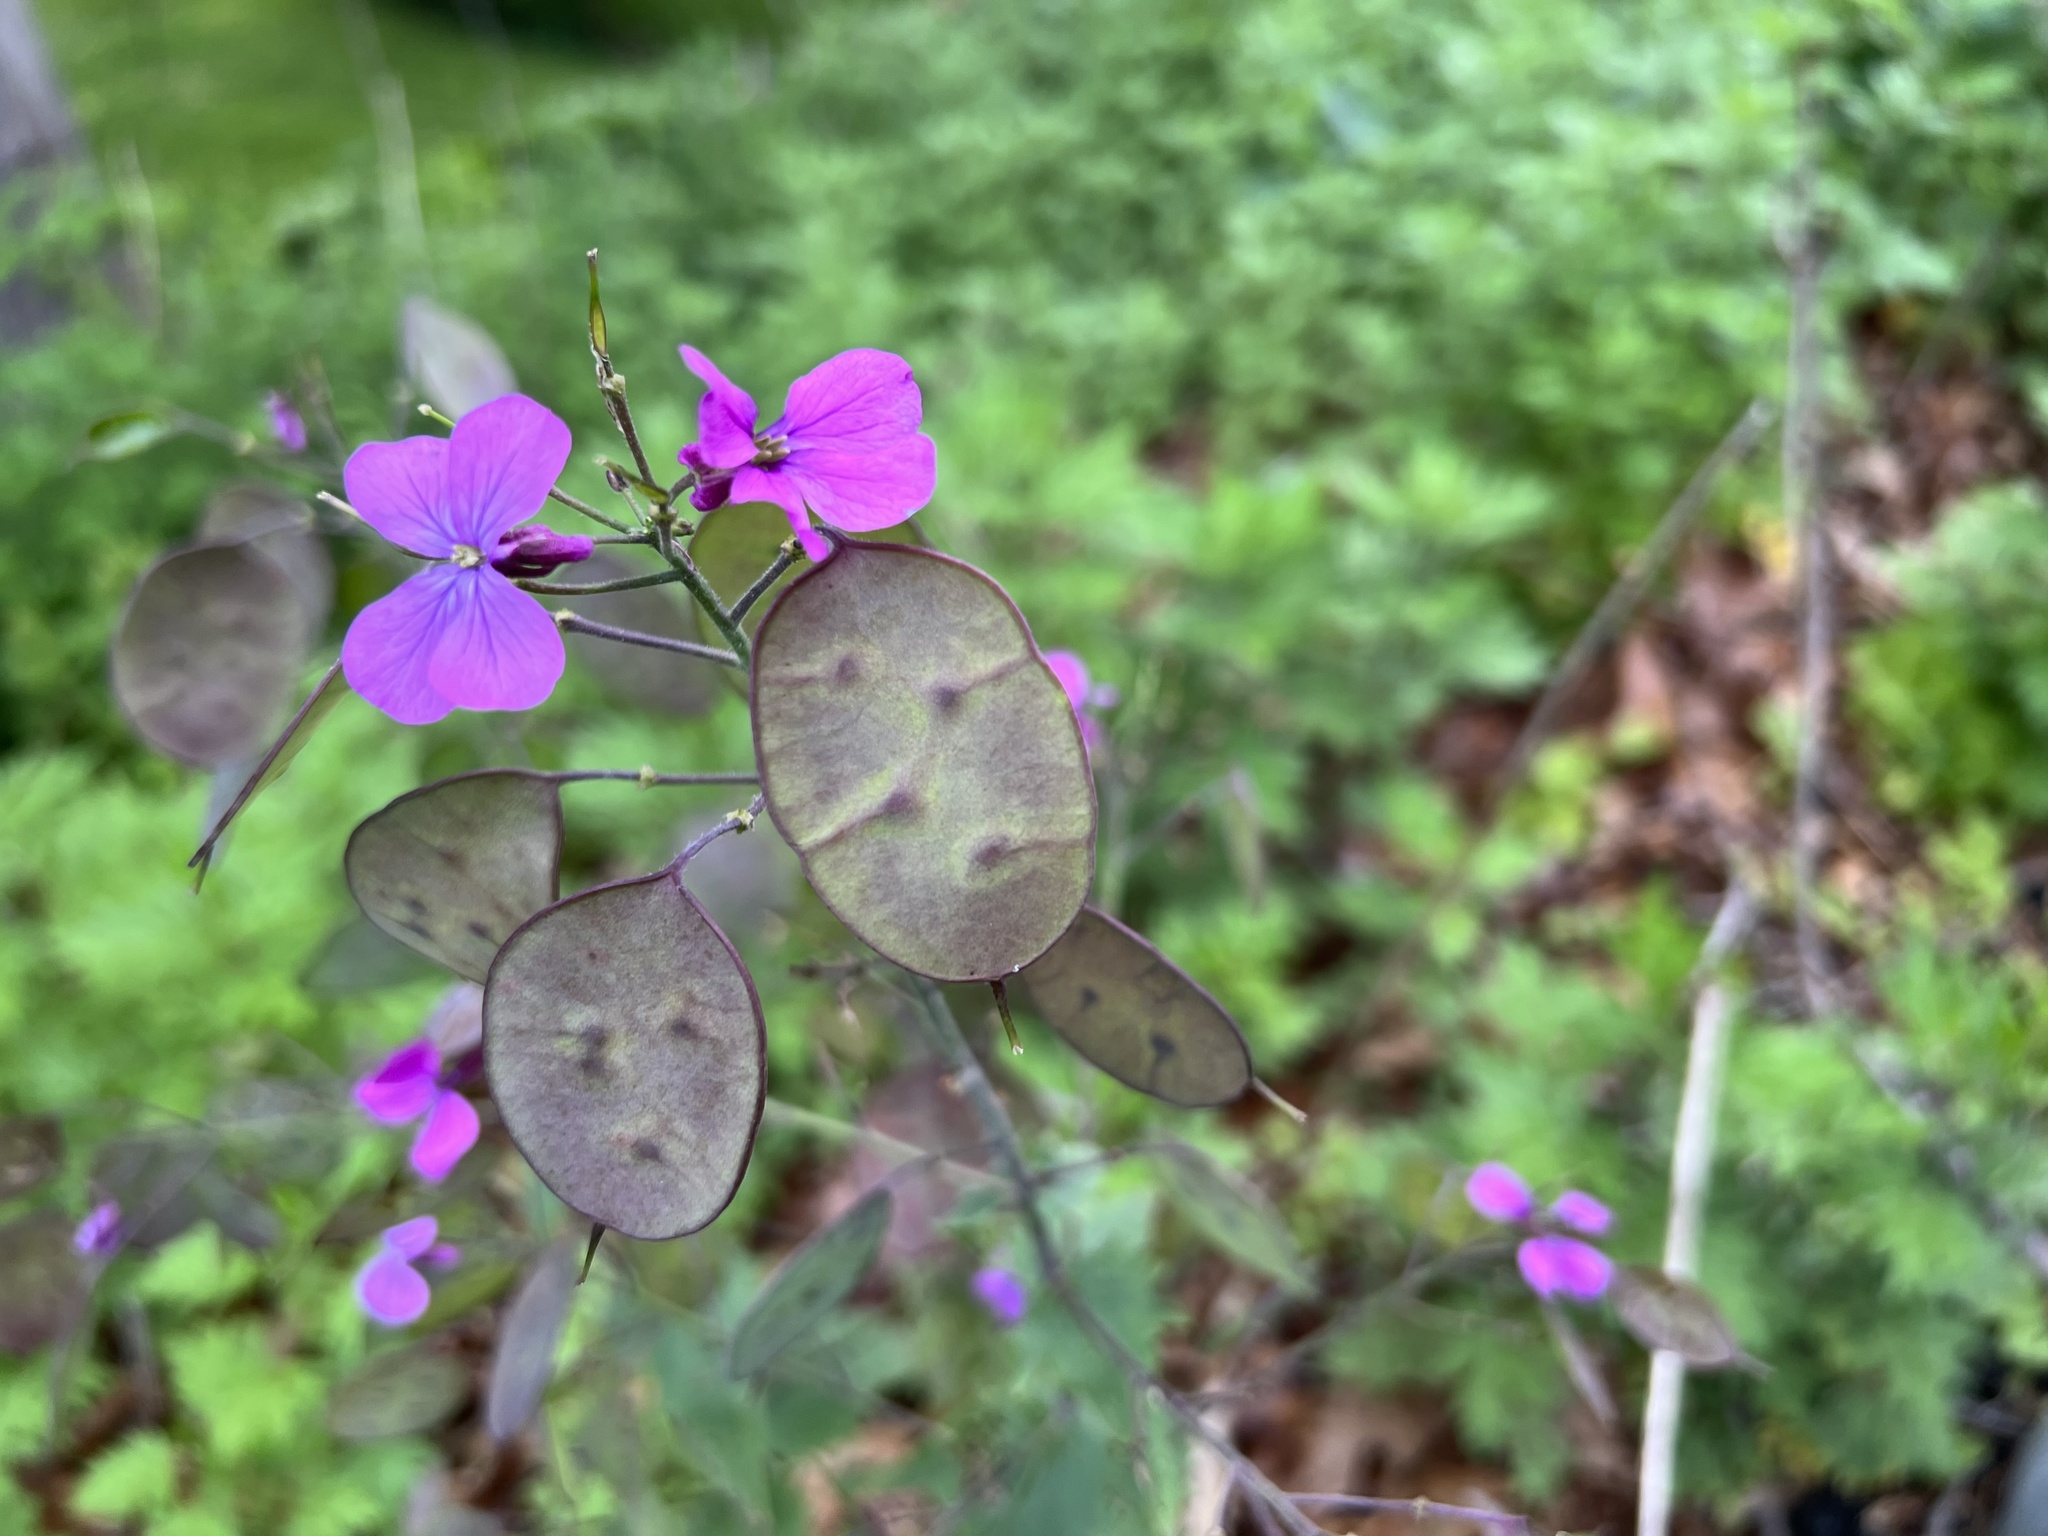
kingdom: Plantae
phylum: Tracheophyta
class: Magnoliopsida
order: Brassicales
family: Brassicaceae
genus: Lunaria
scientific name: Lunaria annua
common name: Honesty
